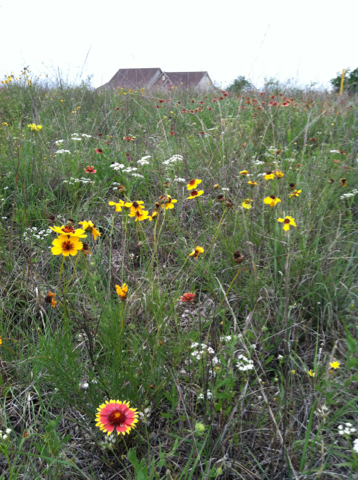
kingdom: Plantae
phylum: Tracheophyta
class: Magnoliopsida
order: Asterales
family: Asteraceae
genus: Thelesperma
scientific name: Thelesperma filifolium
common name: Stiff greenthread
